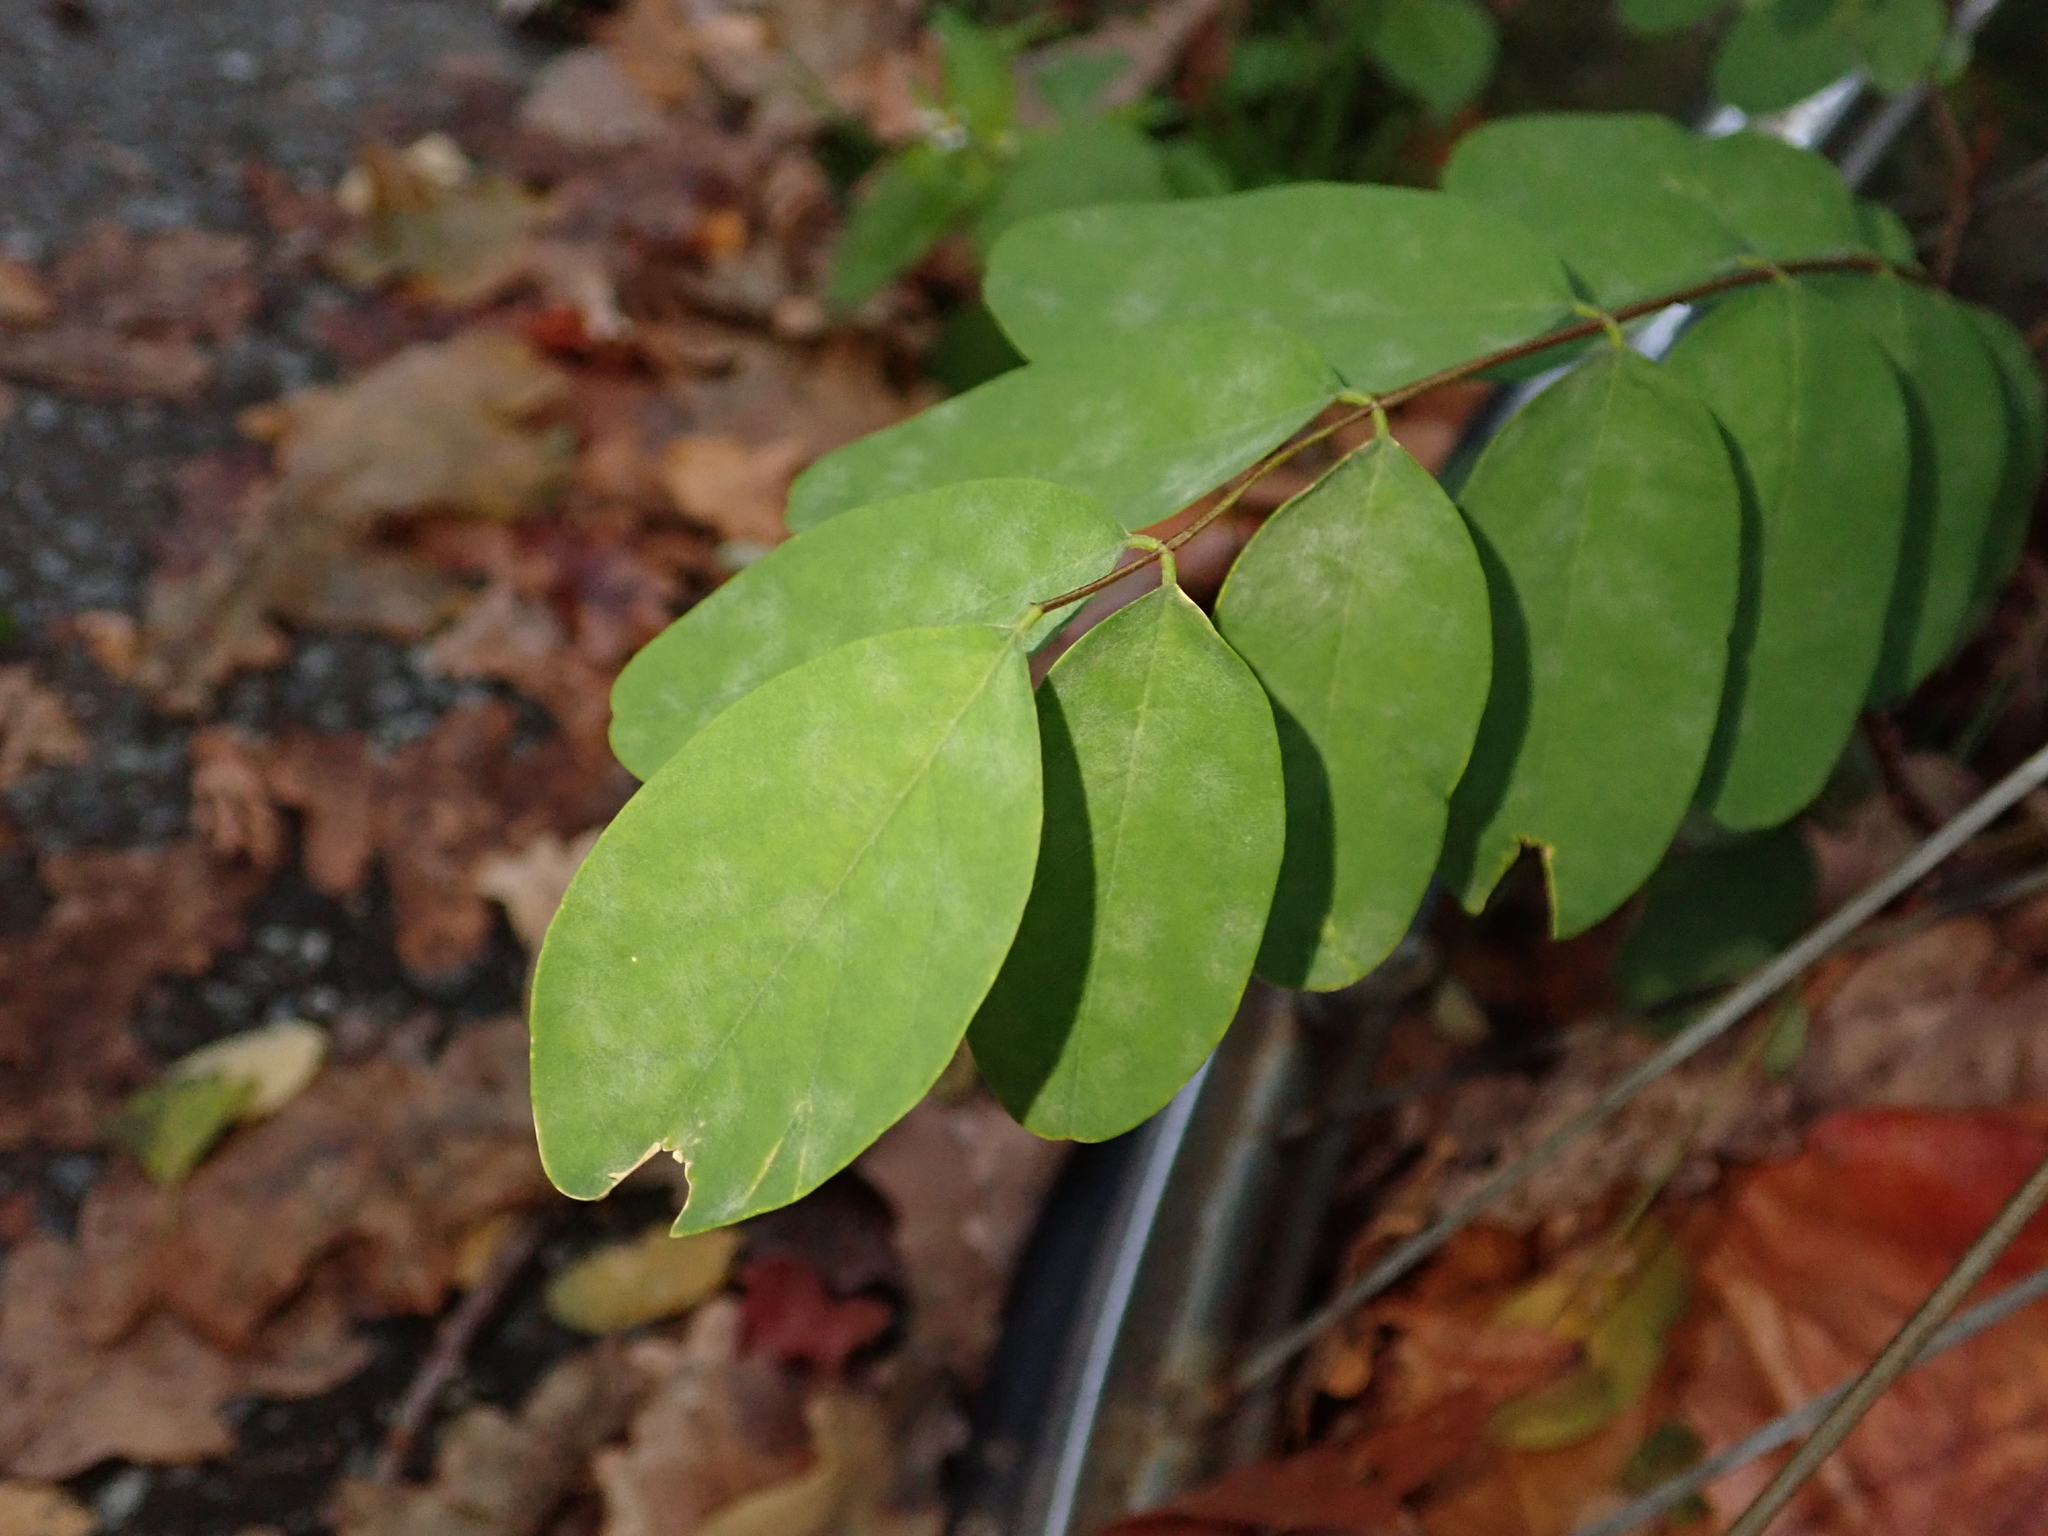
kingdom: Plantae
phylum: Tracheophyta
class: Magnoliopsida
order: Fabales
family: Fabaceae
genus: Robinia
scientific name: Robinia pseudoacacia
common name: Black locust
